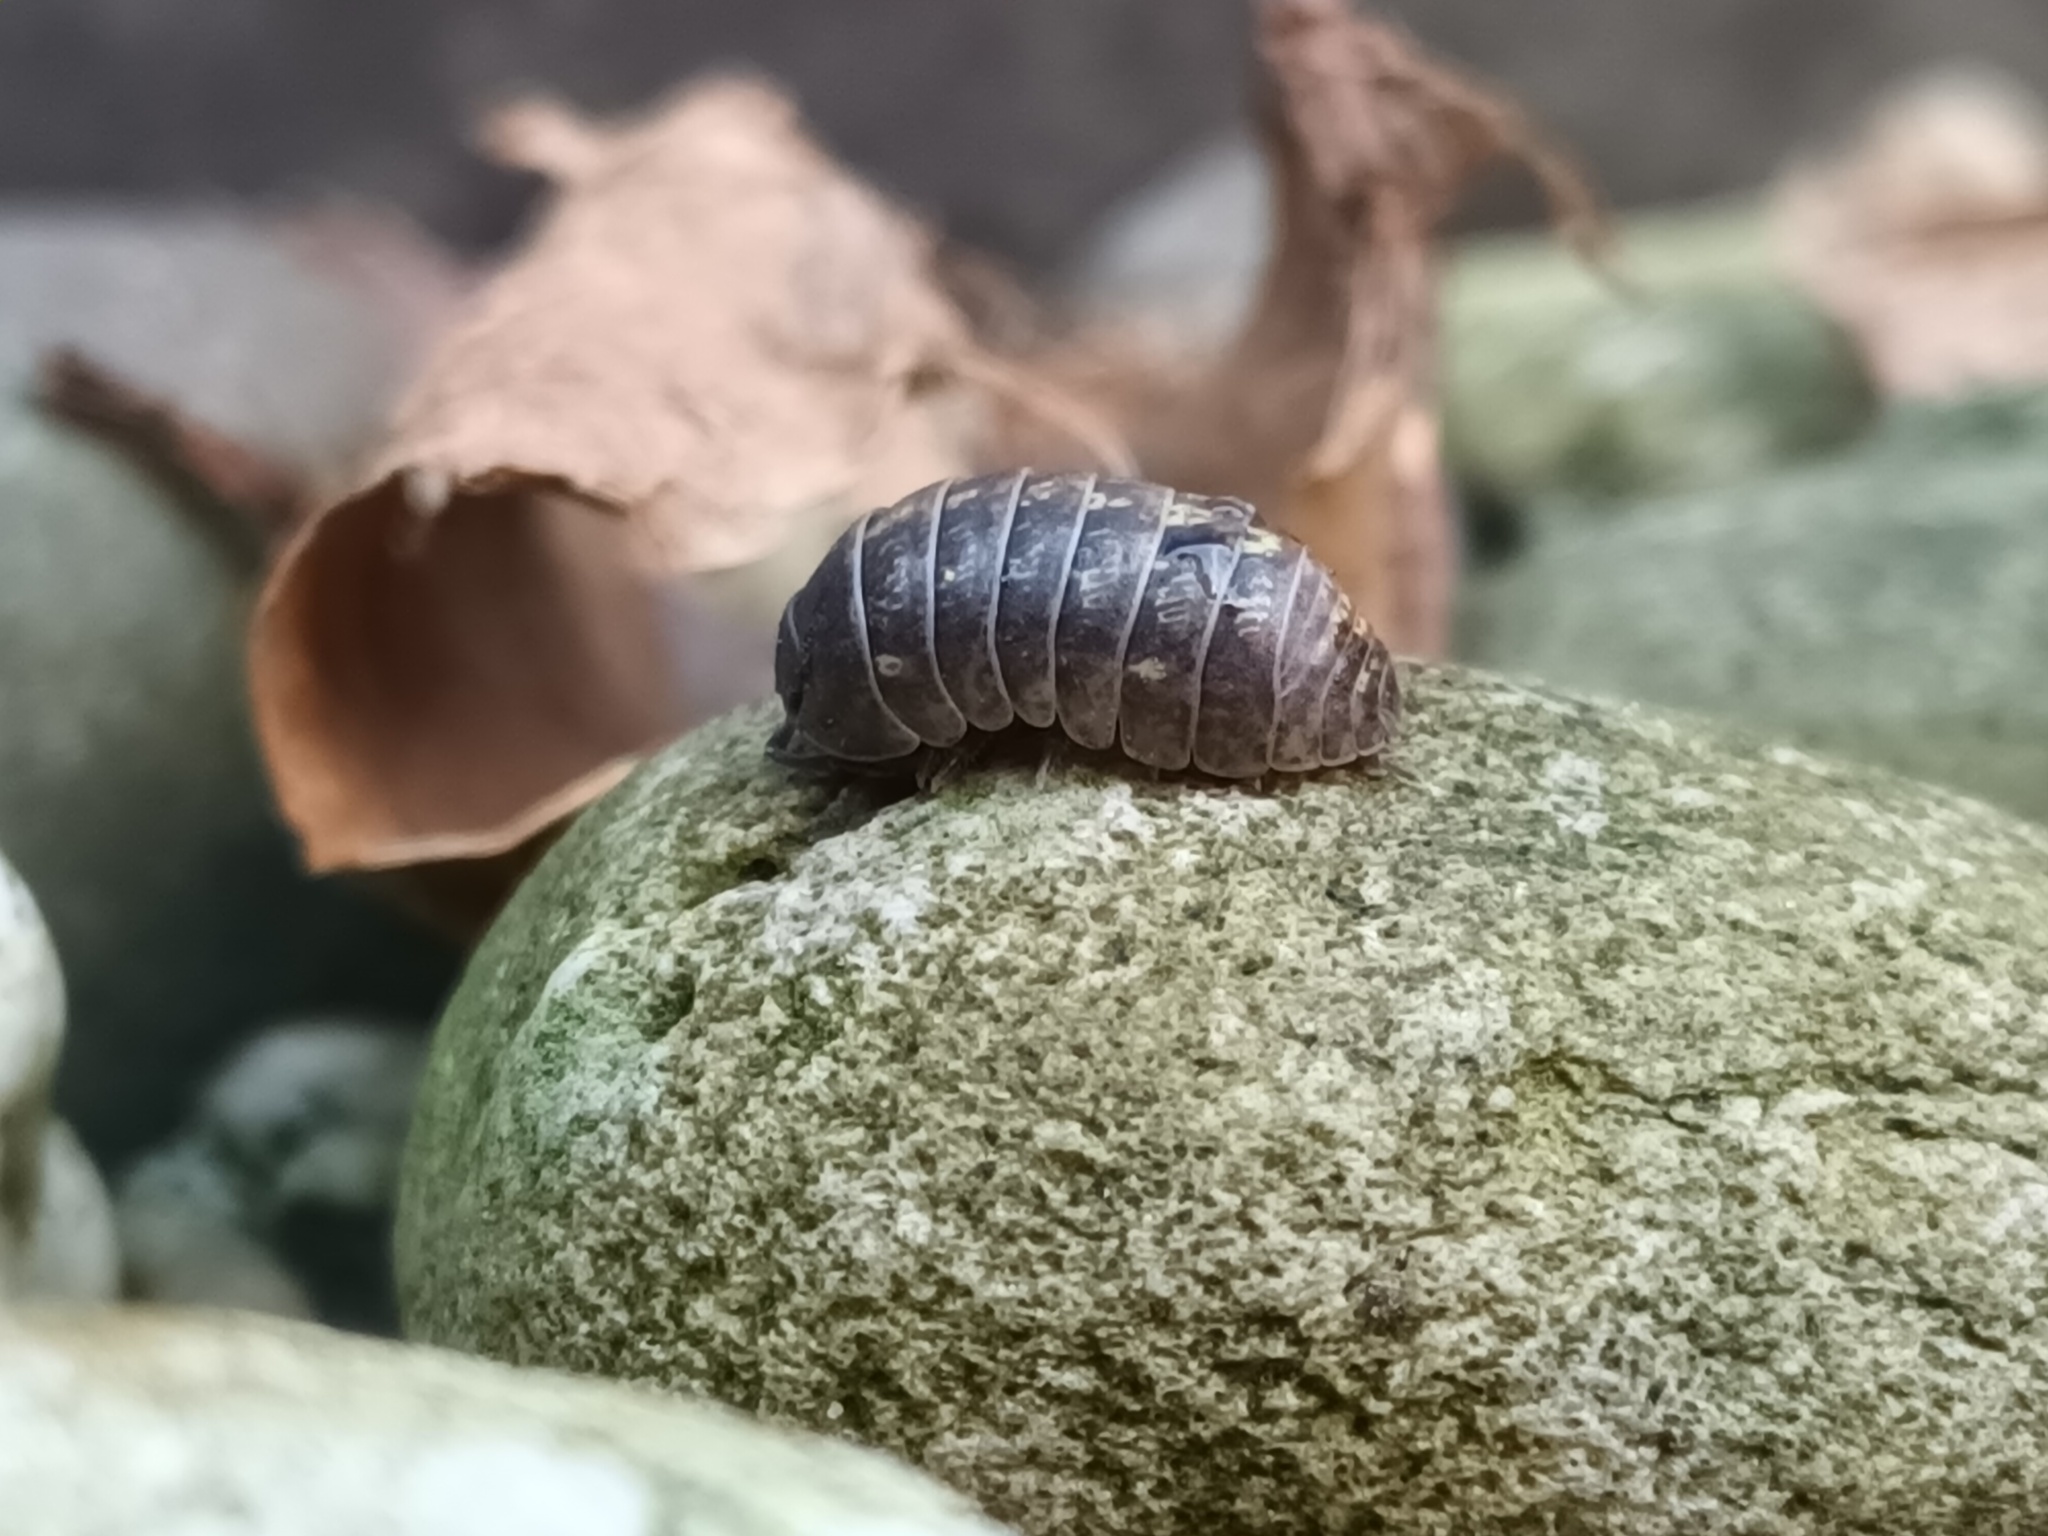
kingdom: Animalia
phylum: Arthropoda
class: Malacostraca
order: Isopoda
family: Armadillidiidae
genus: Armadillidium
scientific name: Armadillidium vulgare
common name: Common pill woodlouse
